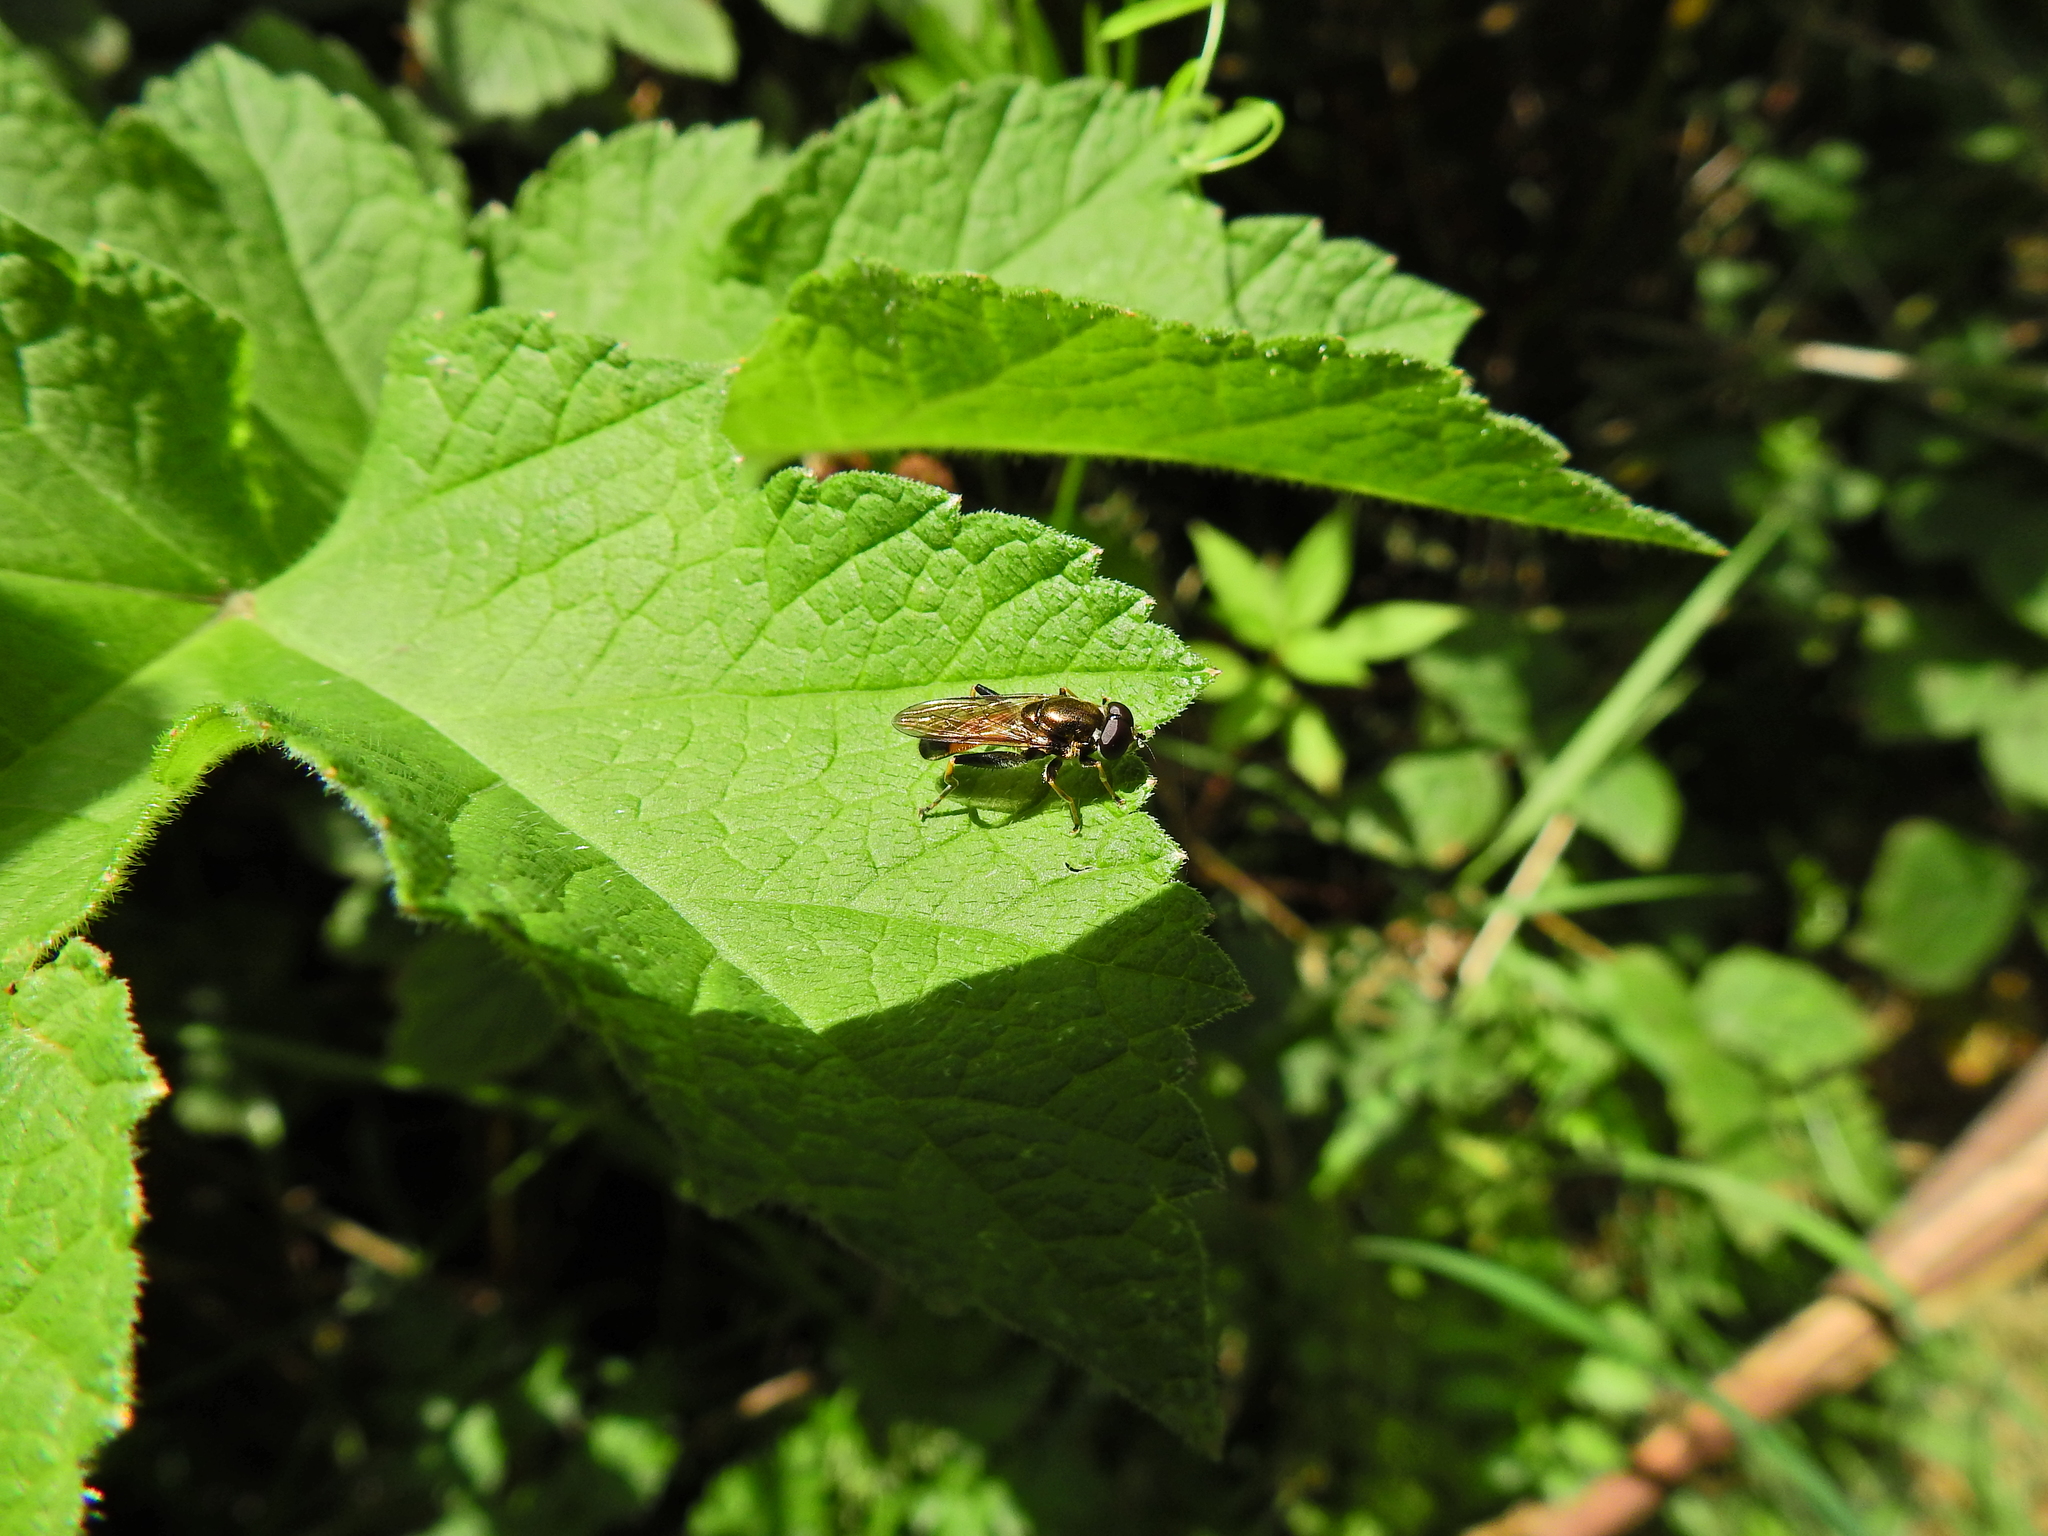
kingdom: Animalia
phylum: Arthropoda
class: Insecta
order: Diptera
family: Syrphidae
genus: Xylota
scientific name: Xylota segnis
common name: Brown-toed forest fly
